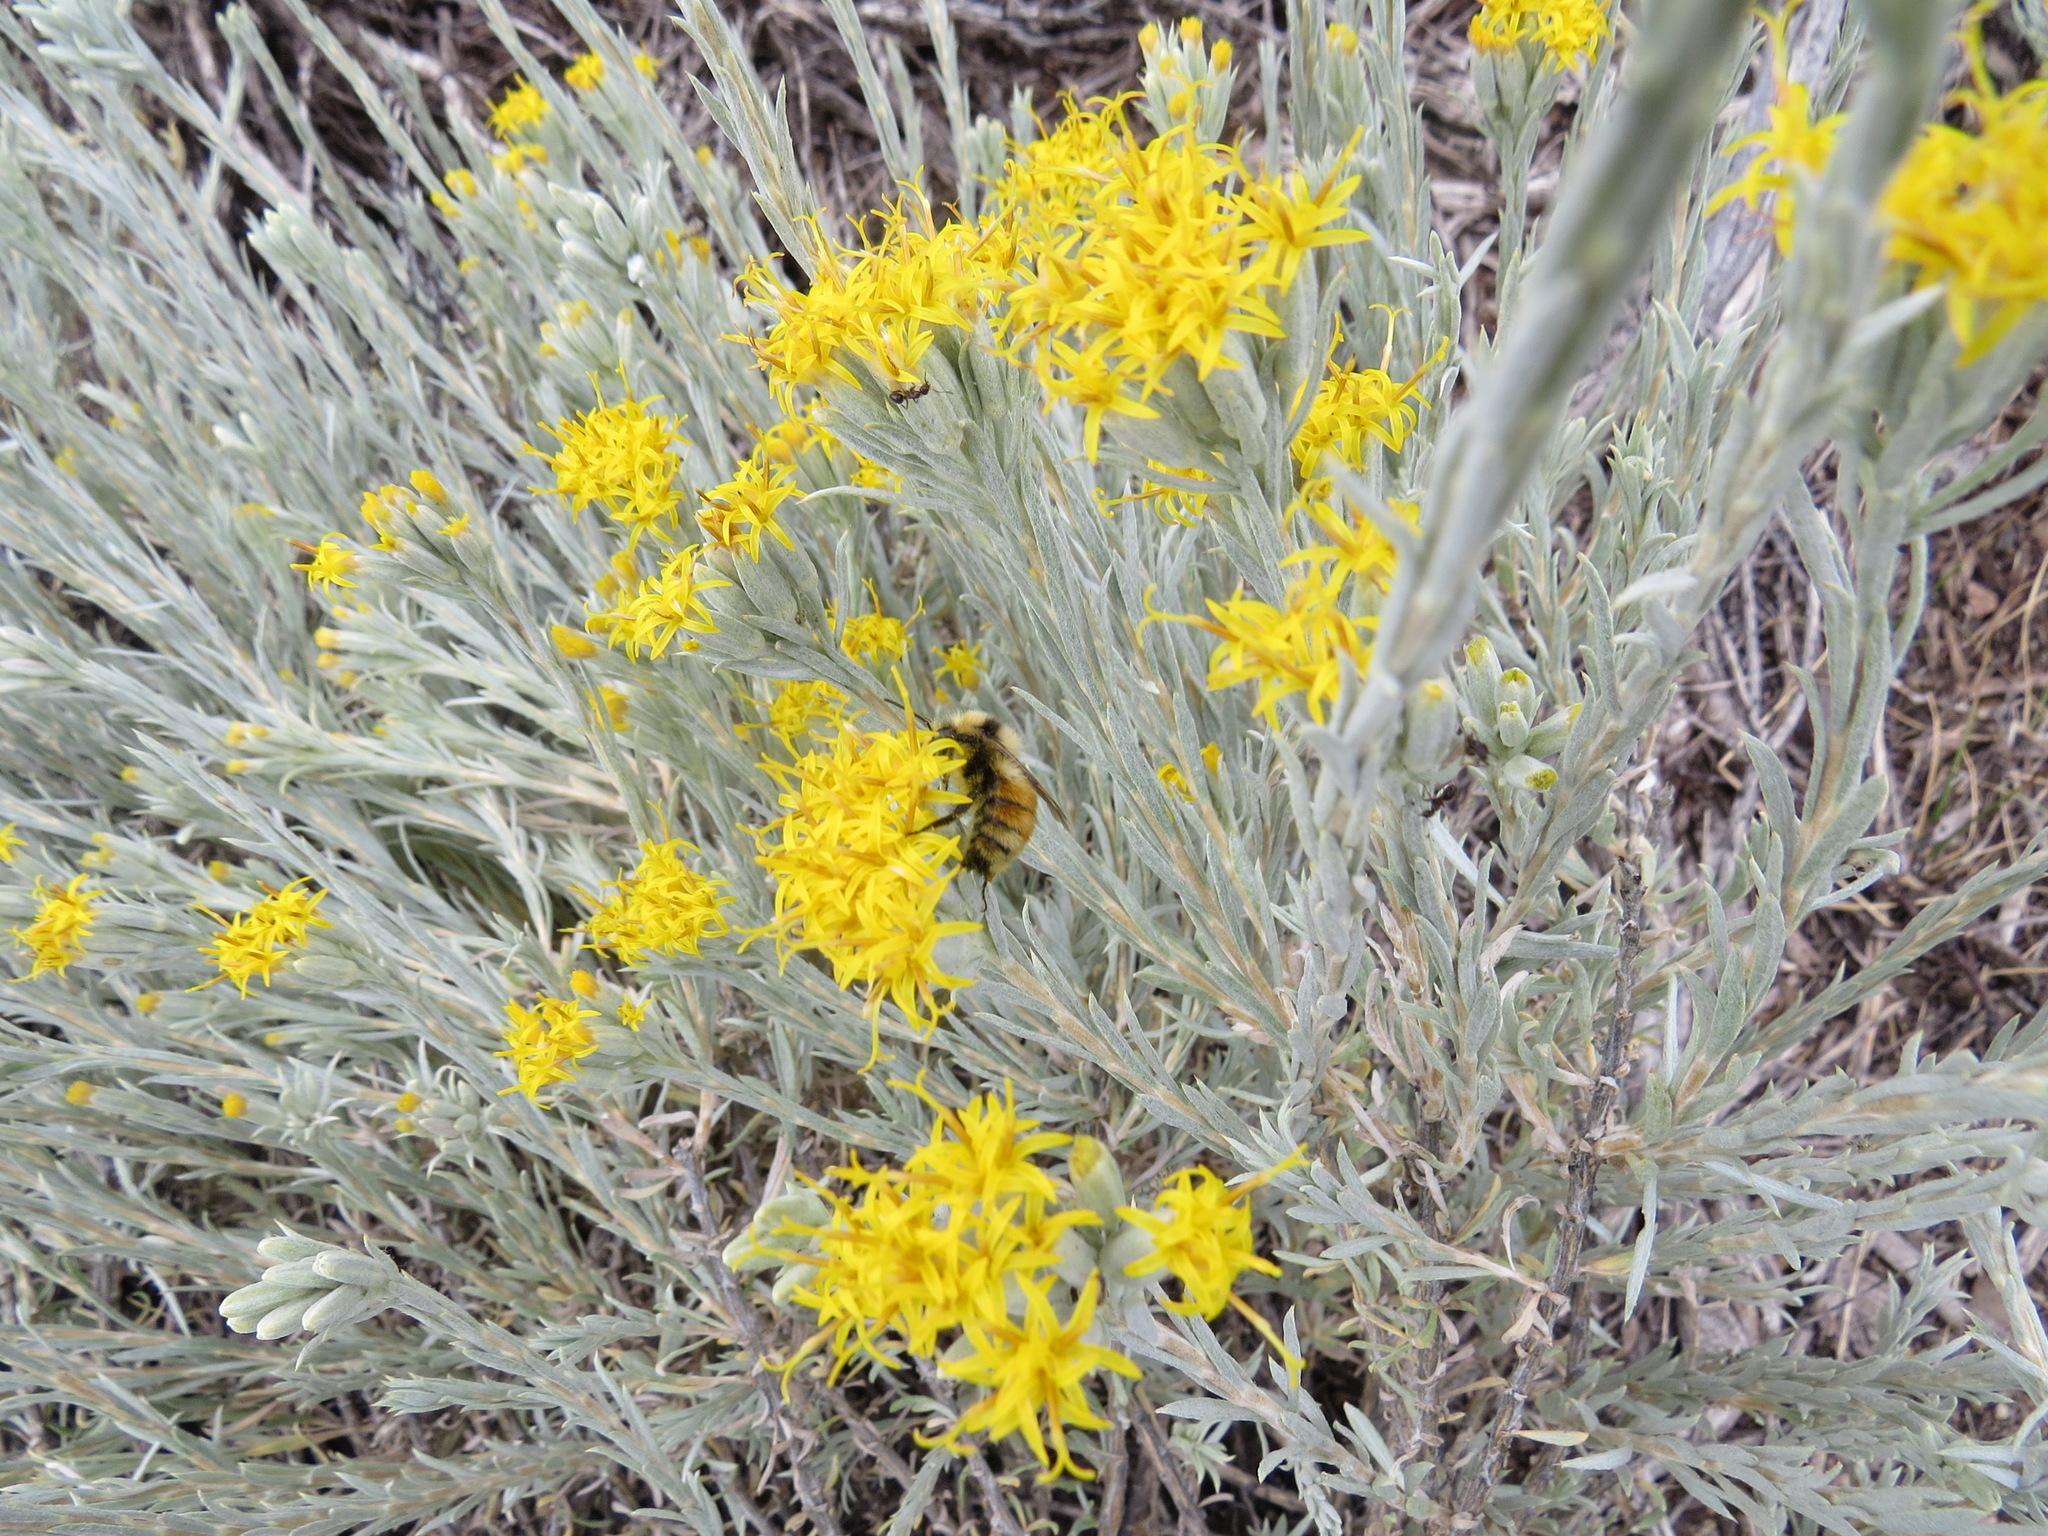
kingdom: Animalia
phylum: Arthropoda
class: Insecta
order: Hymenoptera
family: Apidae
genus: Bombus
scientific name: Bombus huntii
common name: Hunt bumble bee
